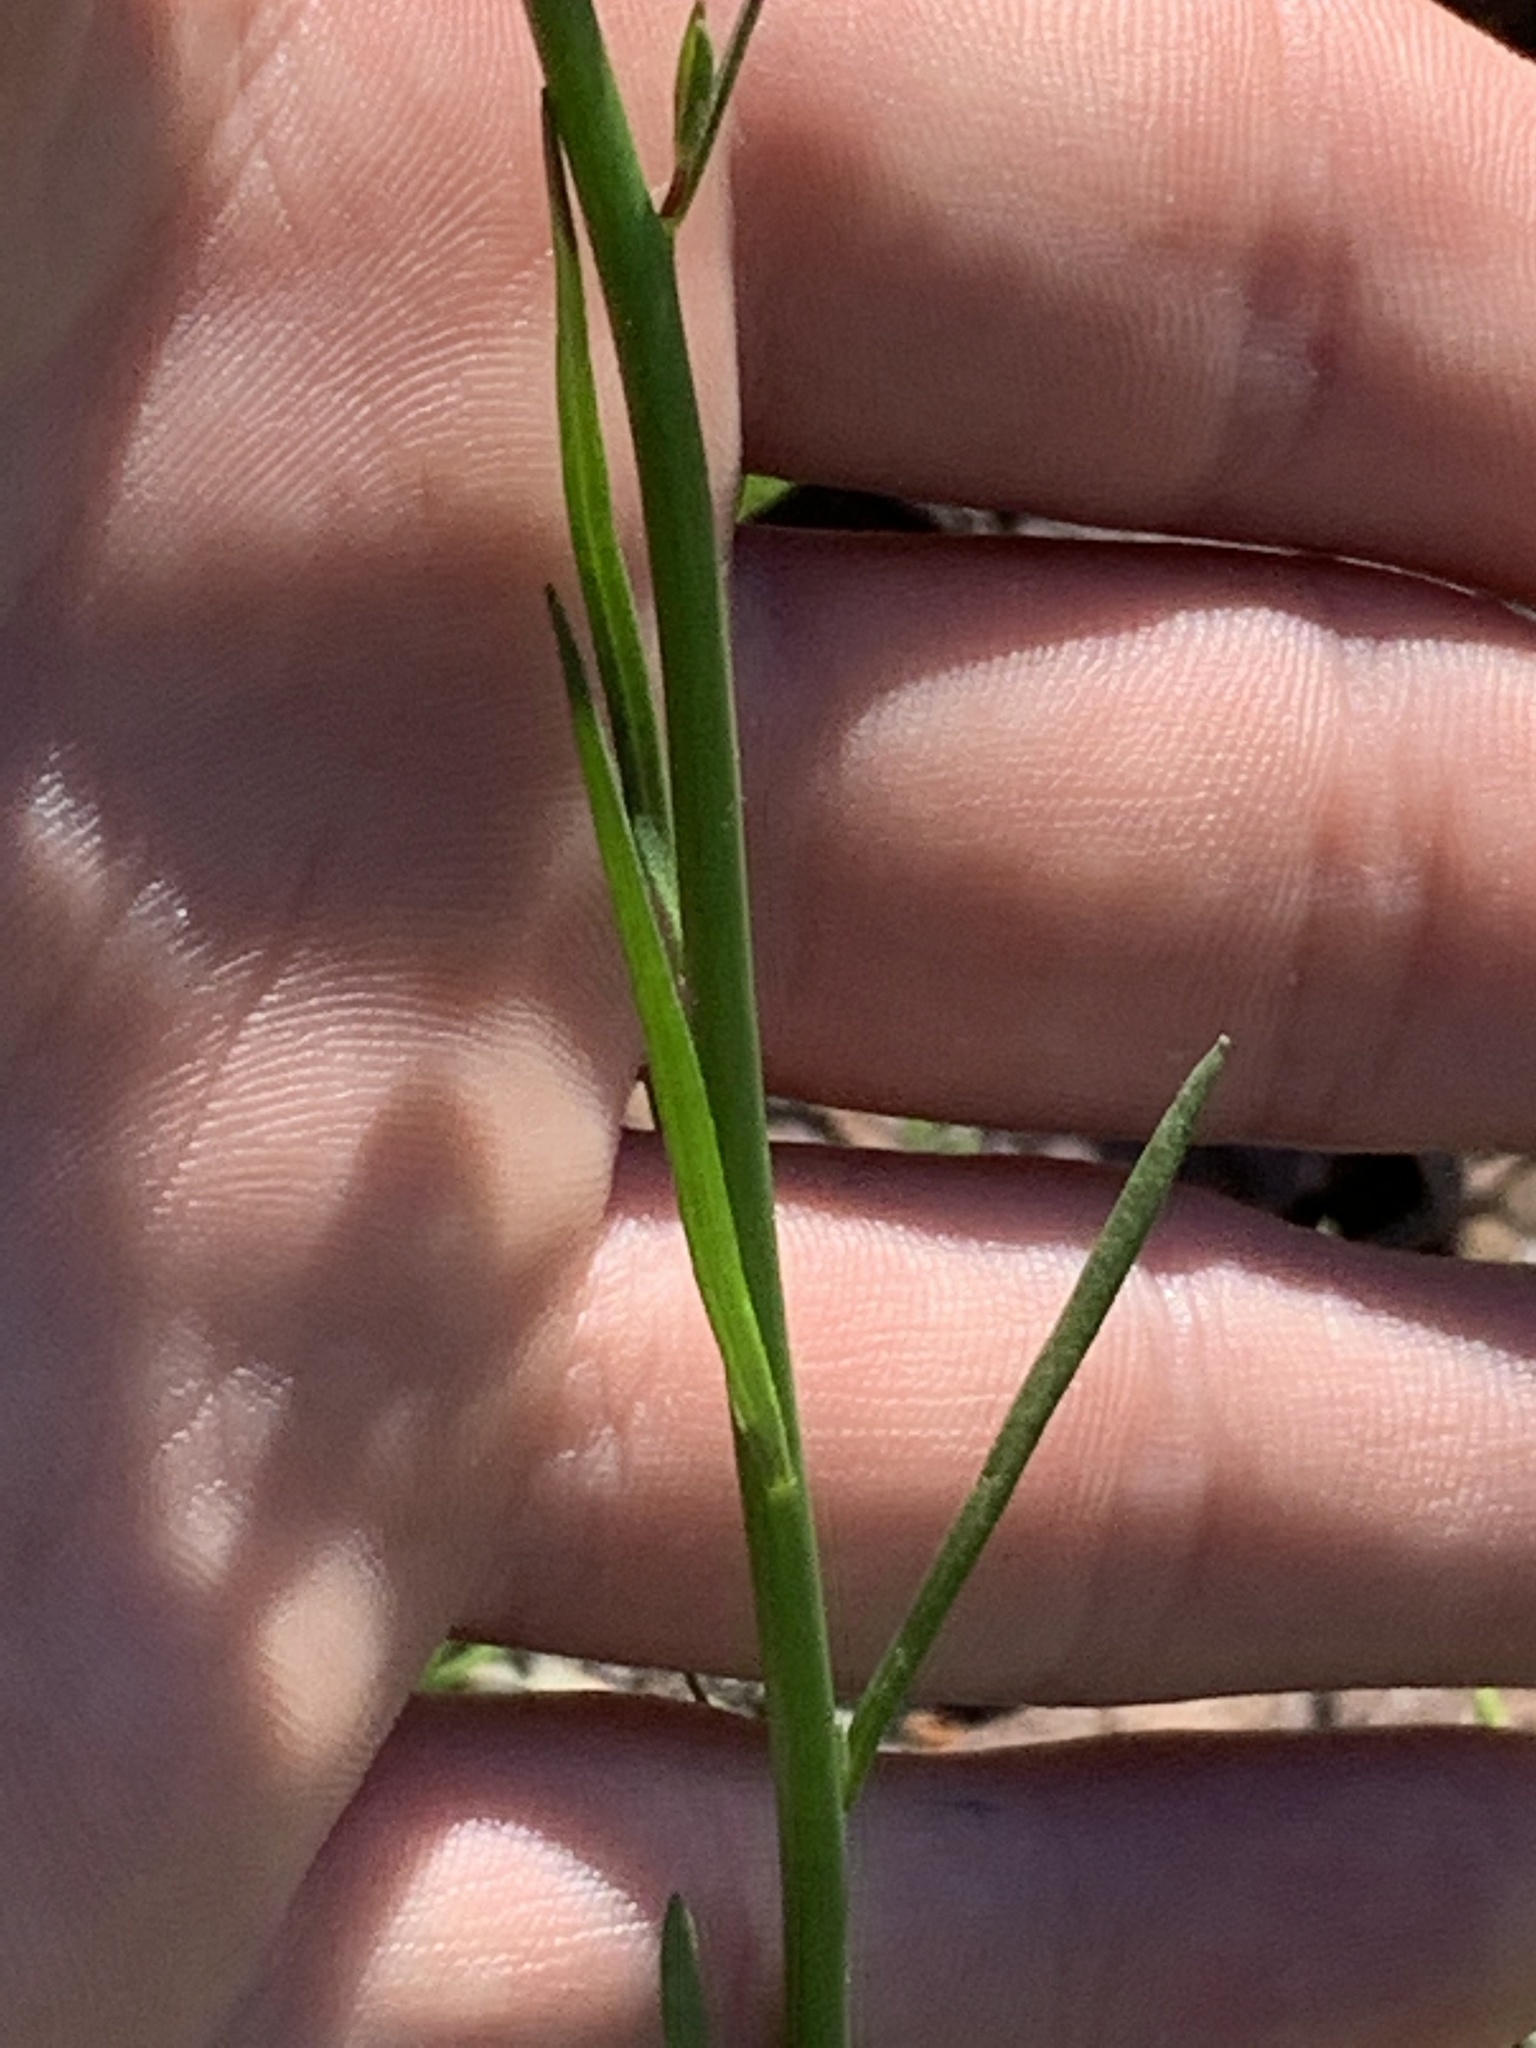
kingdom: Plantae
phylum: Tracheophyta
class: Magnoliopsida
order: Lamiales
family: Plantaginaceae
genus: Nuttallanthus
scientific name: Nuttallanthus canadensis
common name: Blue toadflax
